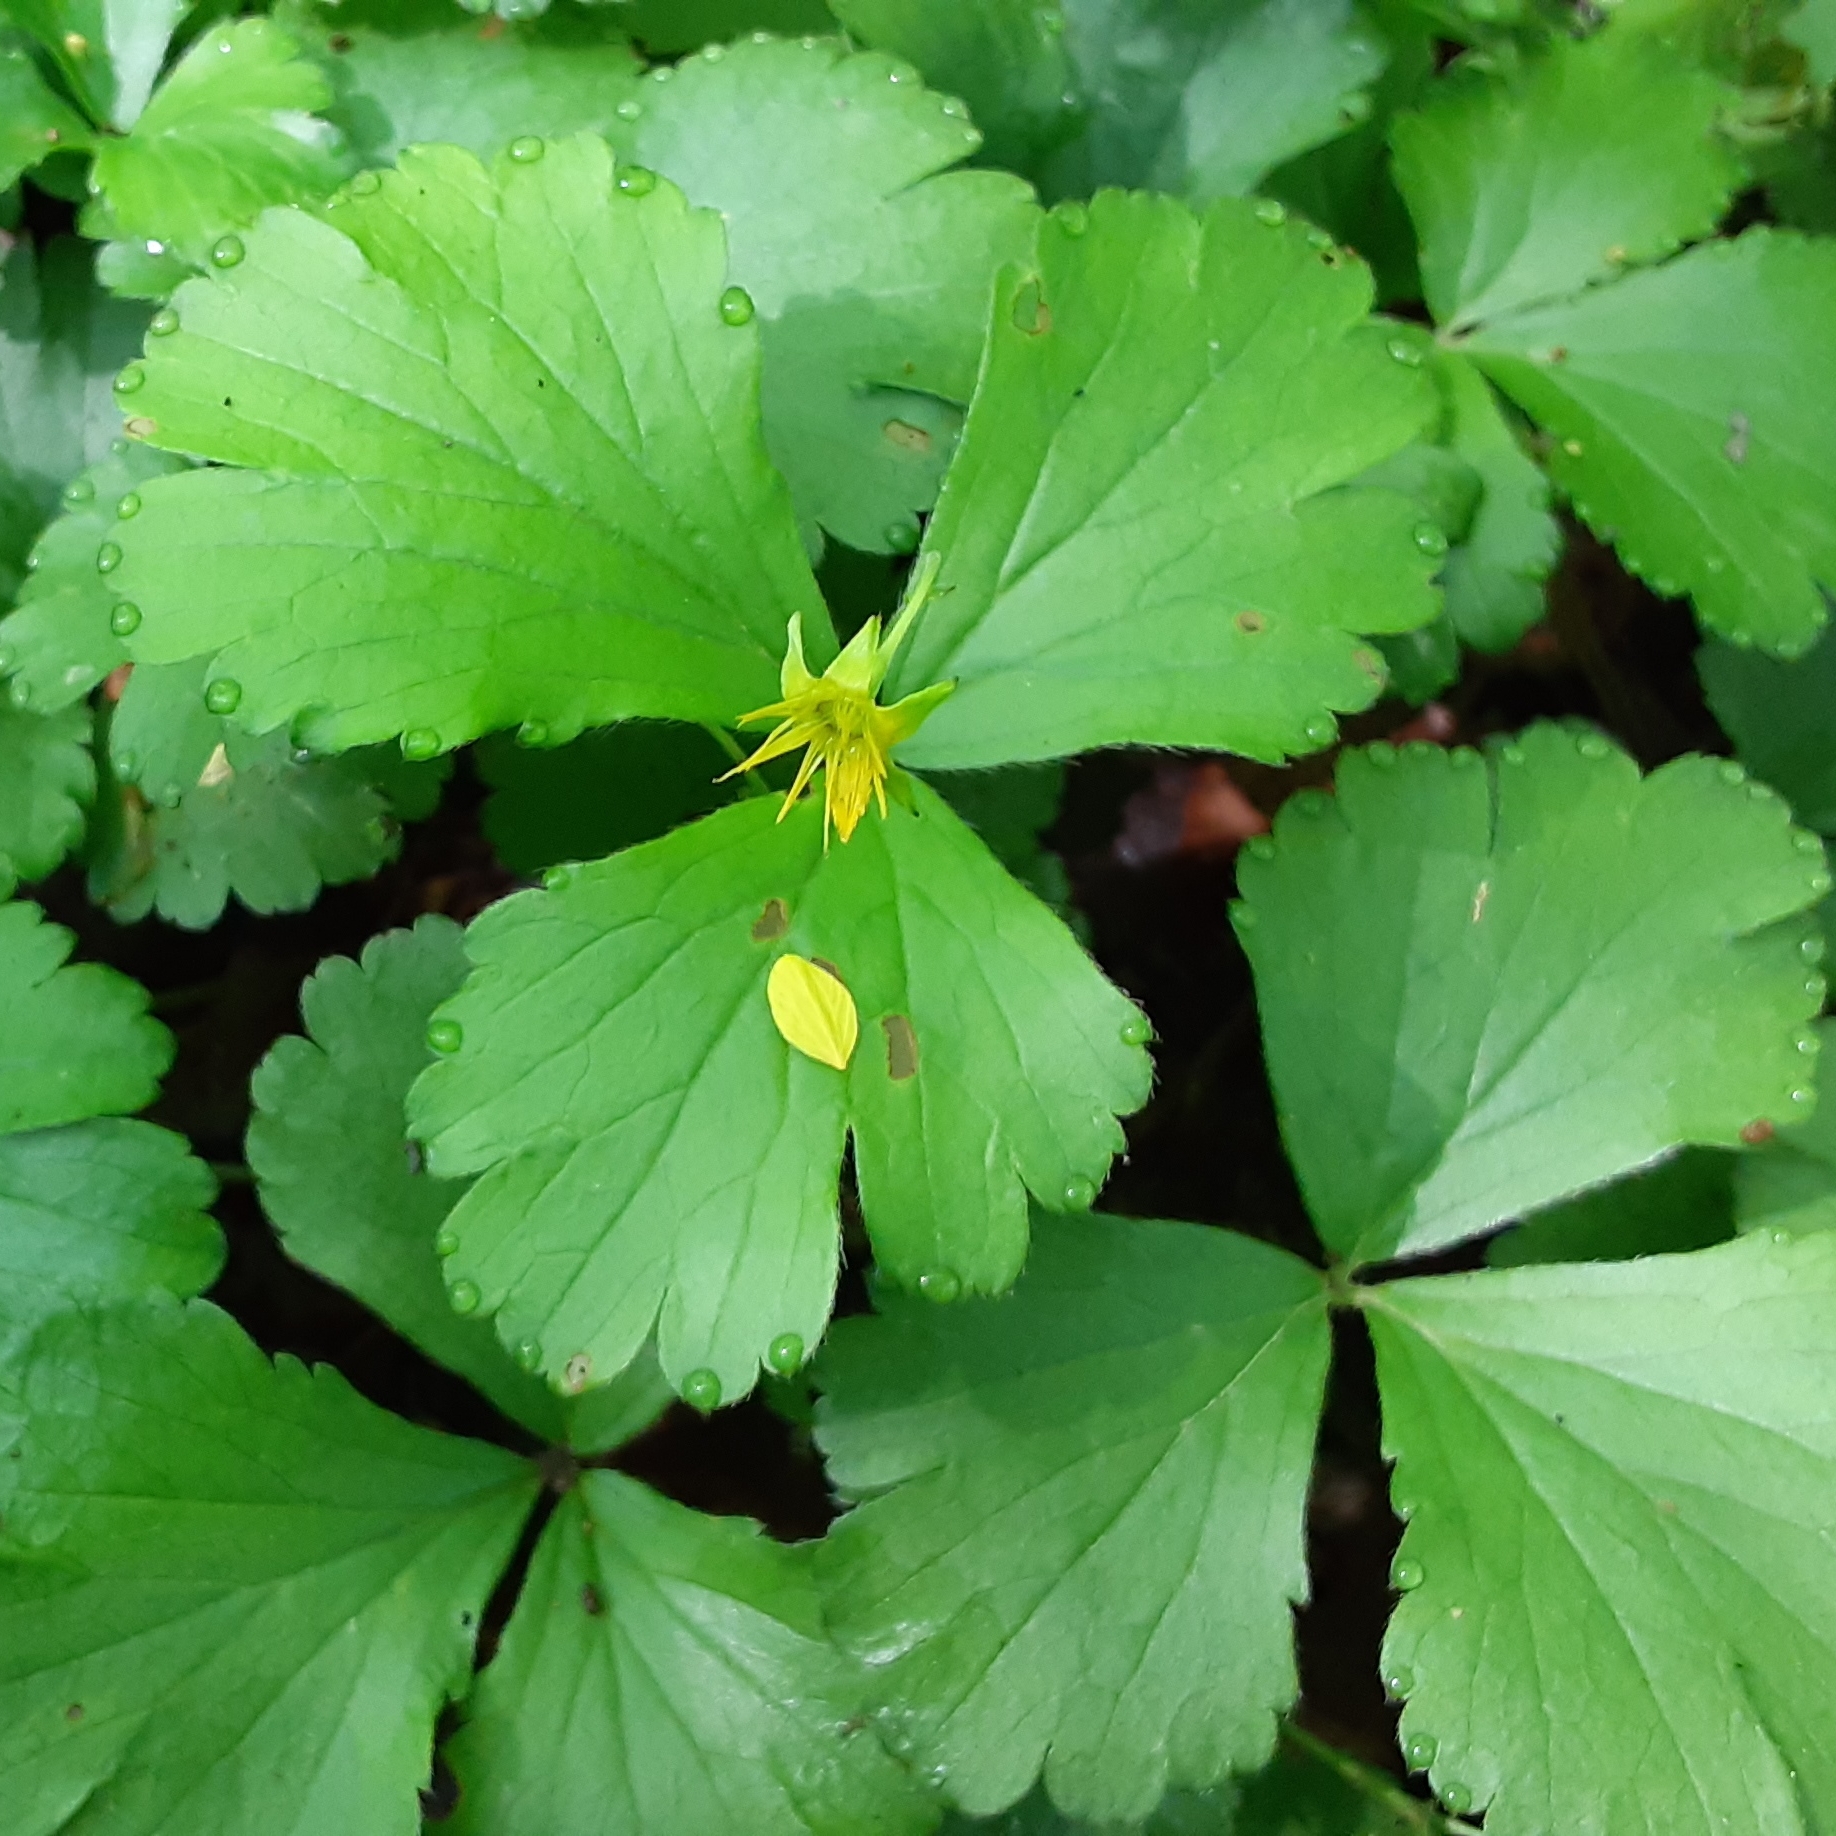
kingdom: Plantae
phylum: Tracheophyta
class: Magnoliopsida
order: Rosales
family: Rosaceae
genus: Geum
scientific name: Geum fragarioides
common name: Appalachian barren strawberry
